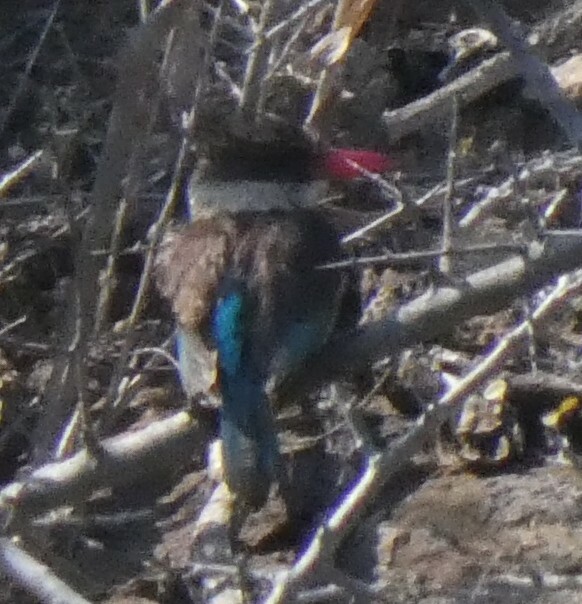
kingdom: Animalia
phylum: Chordata
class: Aves
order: Coraciiformes
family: Alcedinidae
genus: Halcyon
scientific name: Halcyon albiventris
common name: Brown-hooded kingfisher
